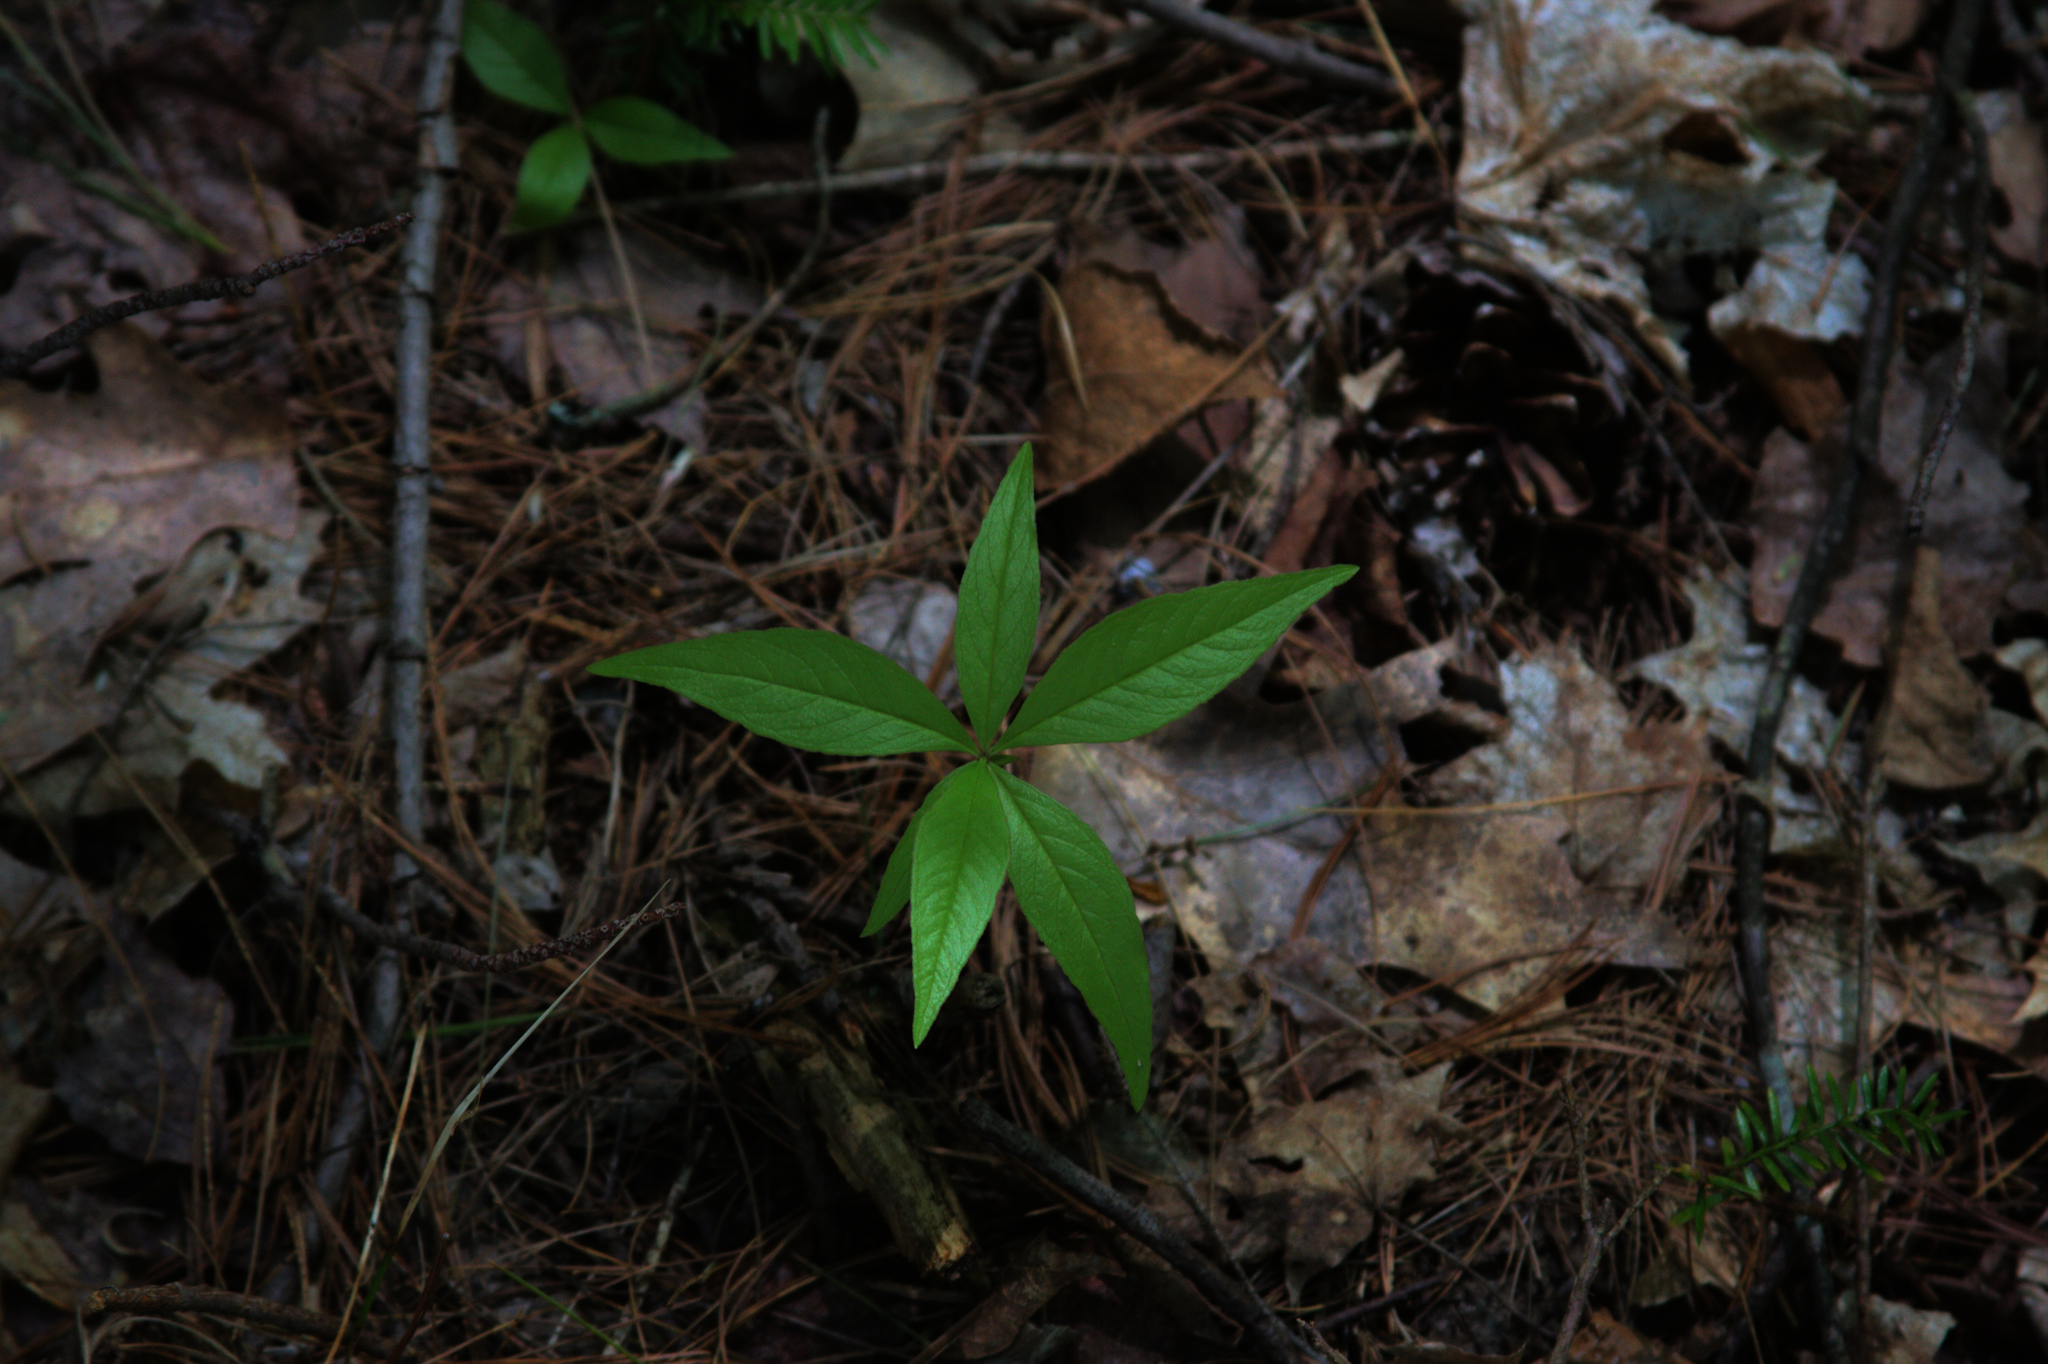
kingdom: Plantae
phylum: Tracheophyta
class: Magnoliopsida
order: Ericales
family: Primulaceae
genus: Lysimachia
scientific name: Lysimachia borealis
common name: American starflower
